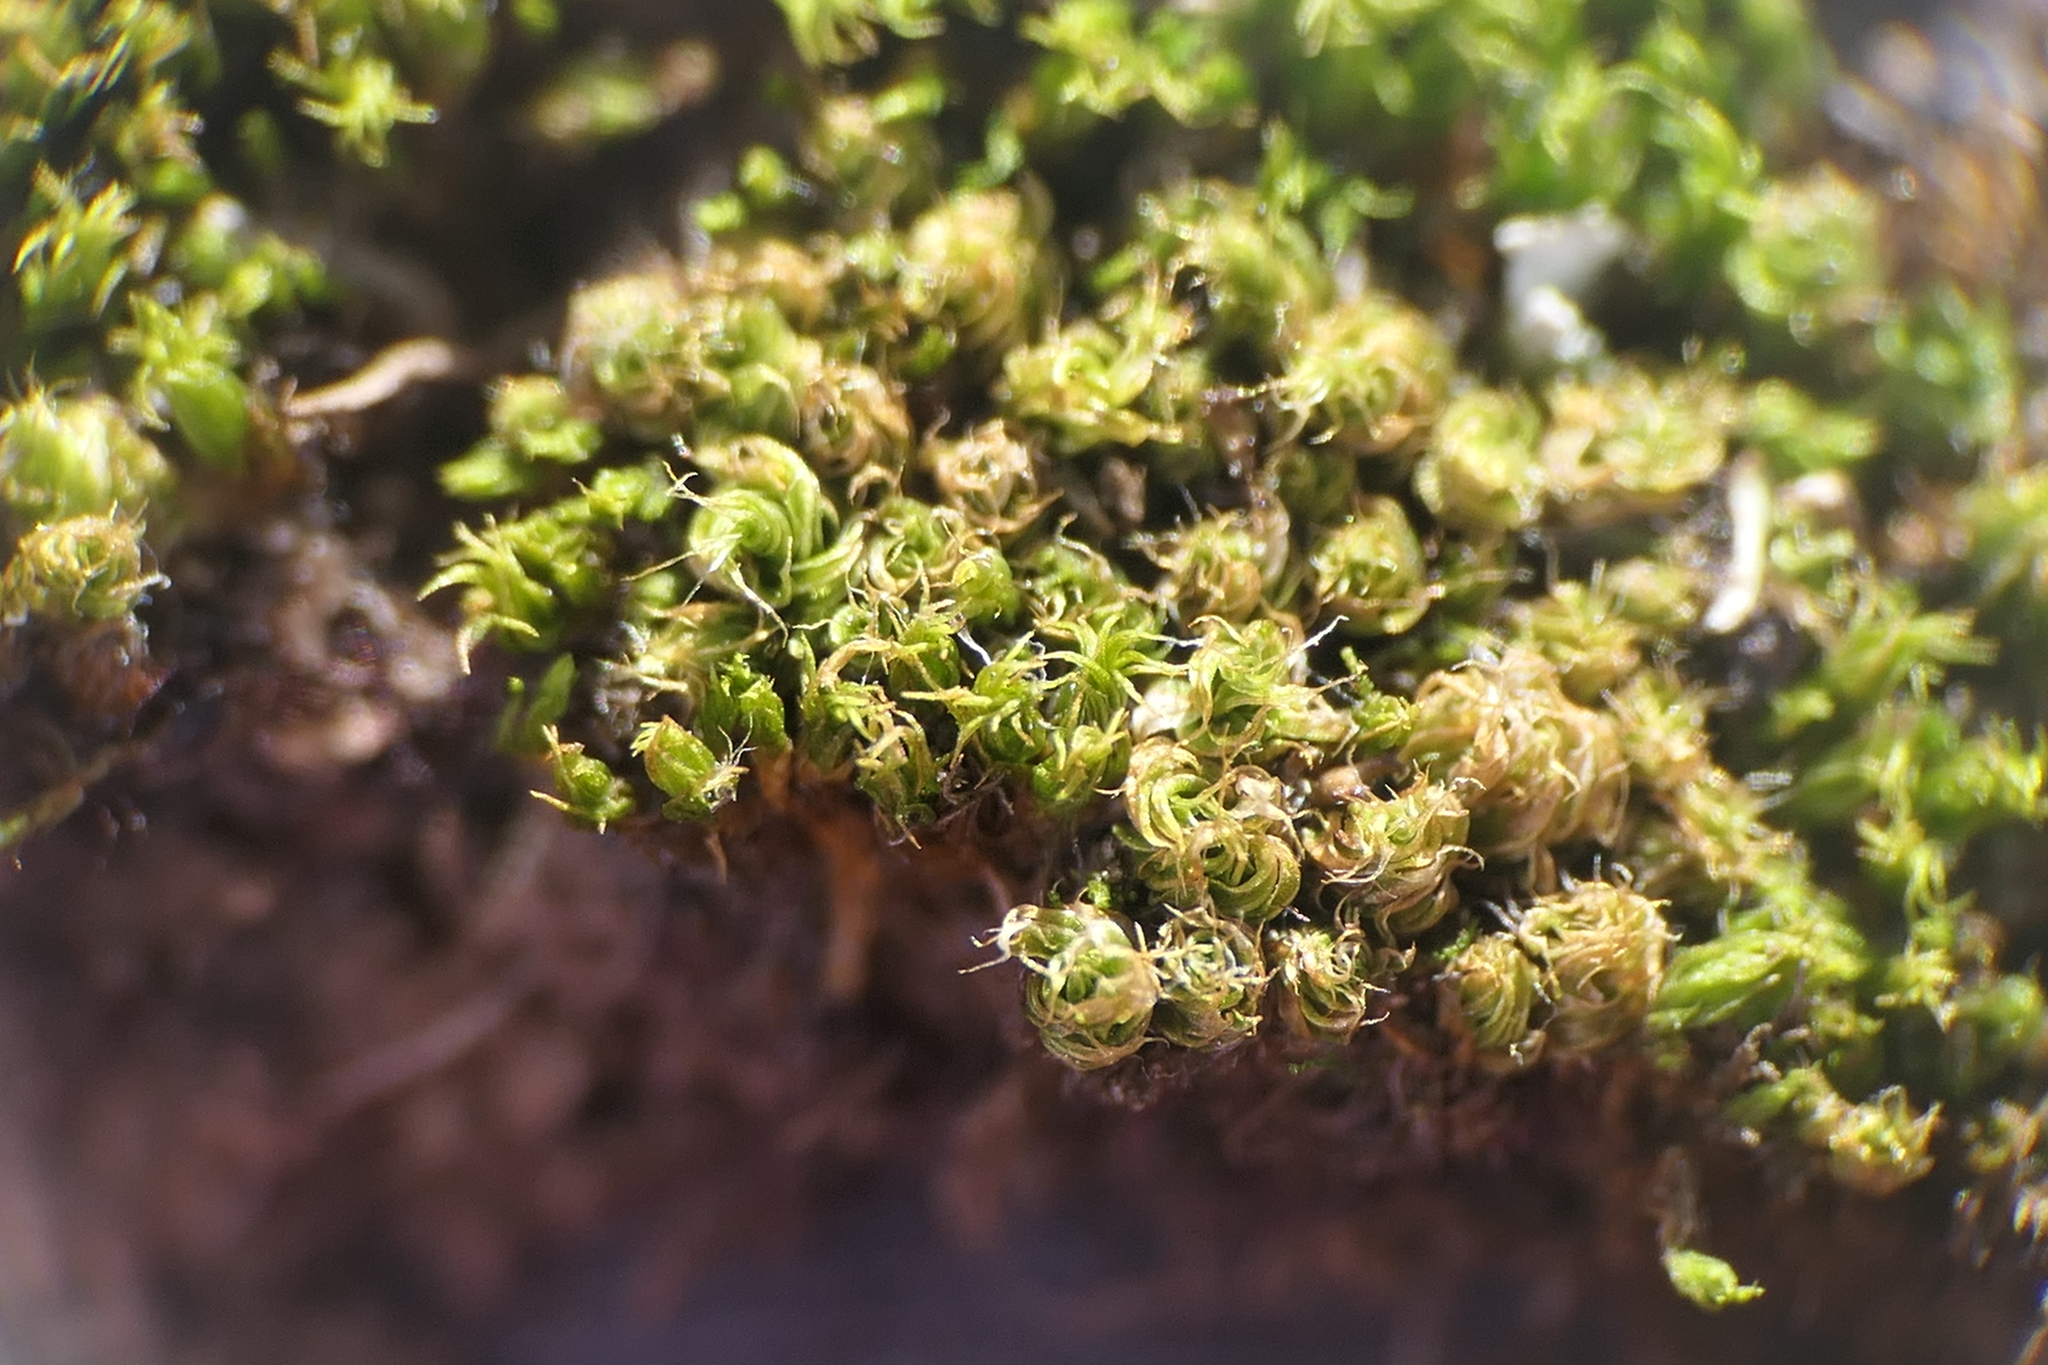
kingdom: Plantae
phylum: Bryophyta
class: Bryopsida
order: Bryales
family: Bryaceae
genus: Rosulabryum
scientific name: Rosulabryum capillare
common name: Capillary thread-moss
